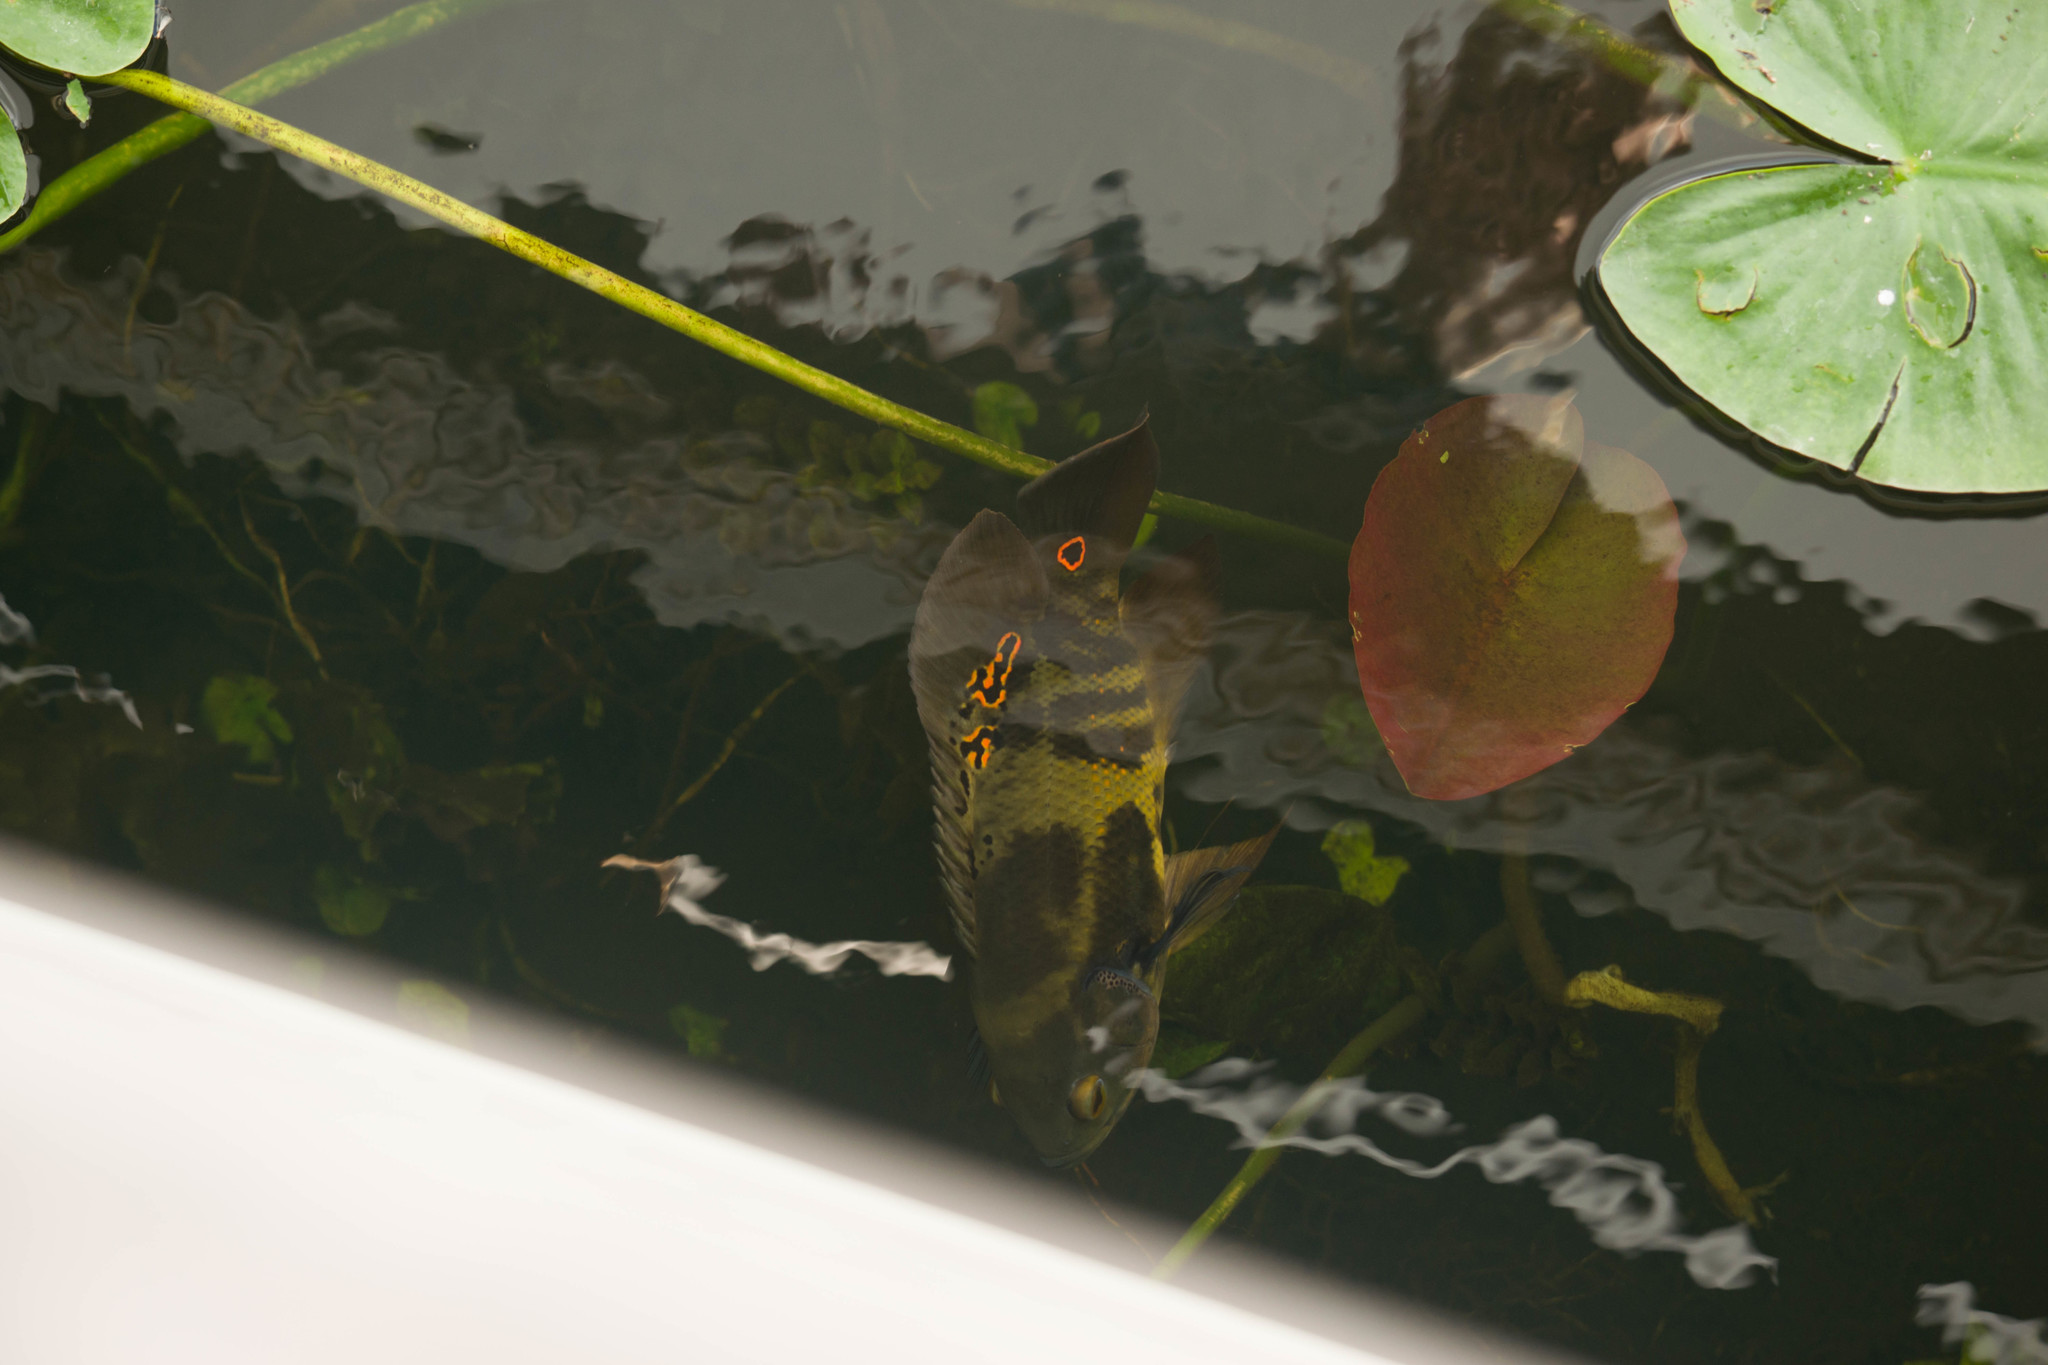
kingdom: Animalia
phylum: Chordata
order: Perciformes
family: Cichlidae
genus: Astronotus
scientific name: Astronotus ocellatus
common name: Oscar
